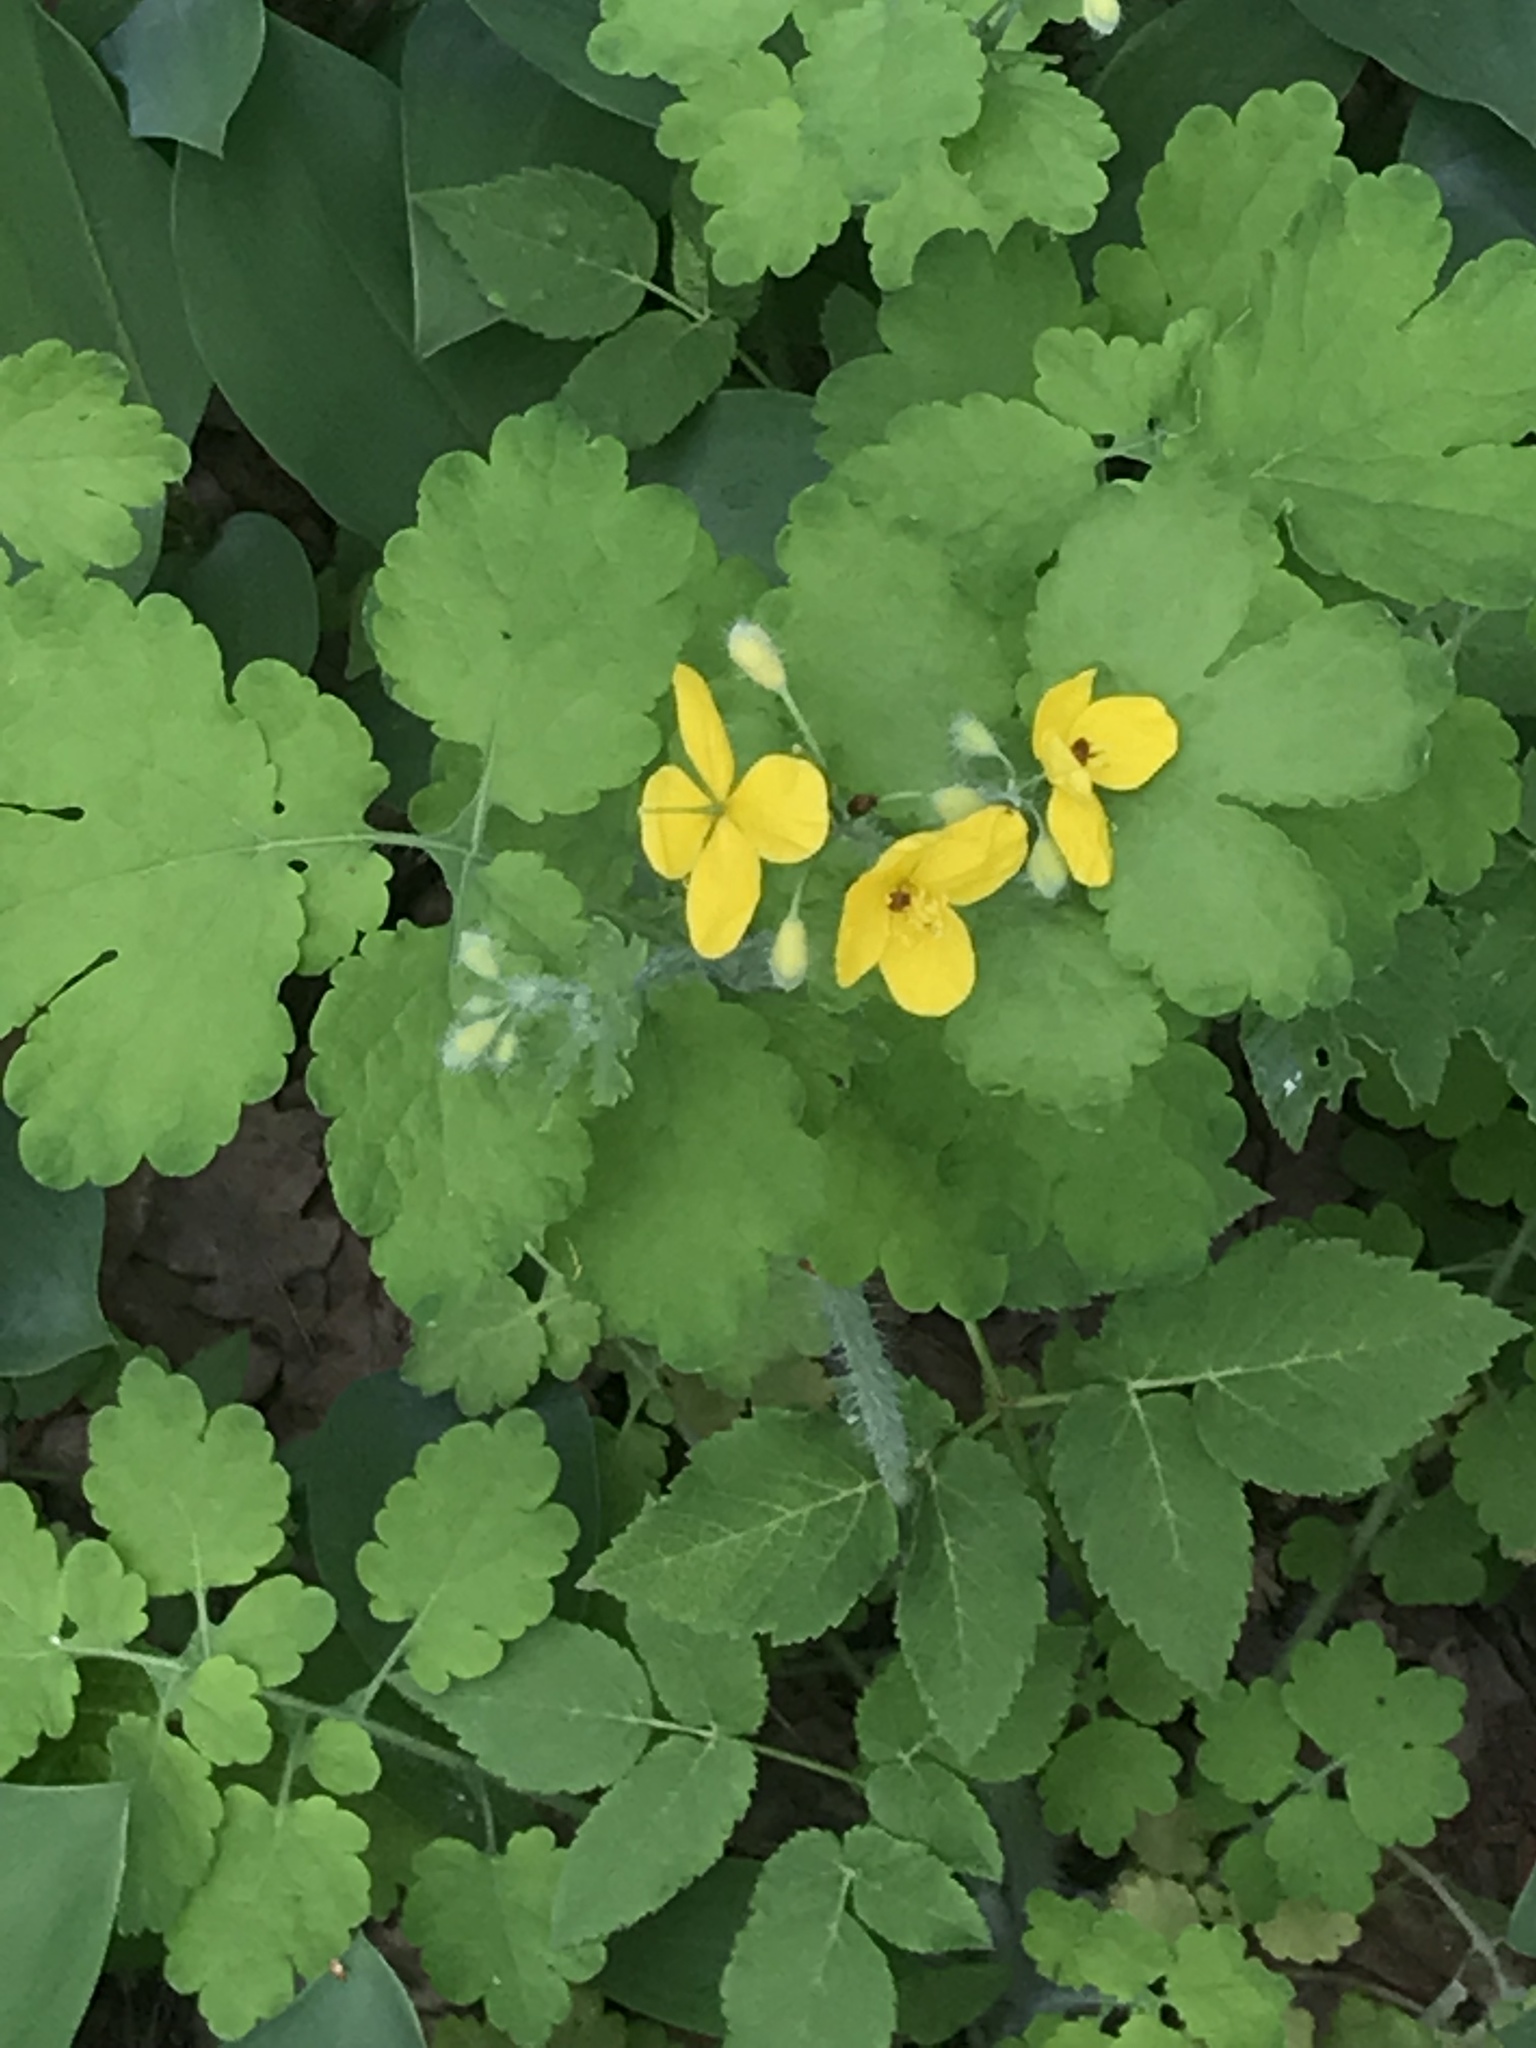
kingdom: Plantae
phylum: Tracheophyta
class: Magnoliopsida
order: Ranunculales
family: Papaveraceae
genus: Chelidonium
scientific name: Chelidonium majus
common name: Greater celandine
